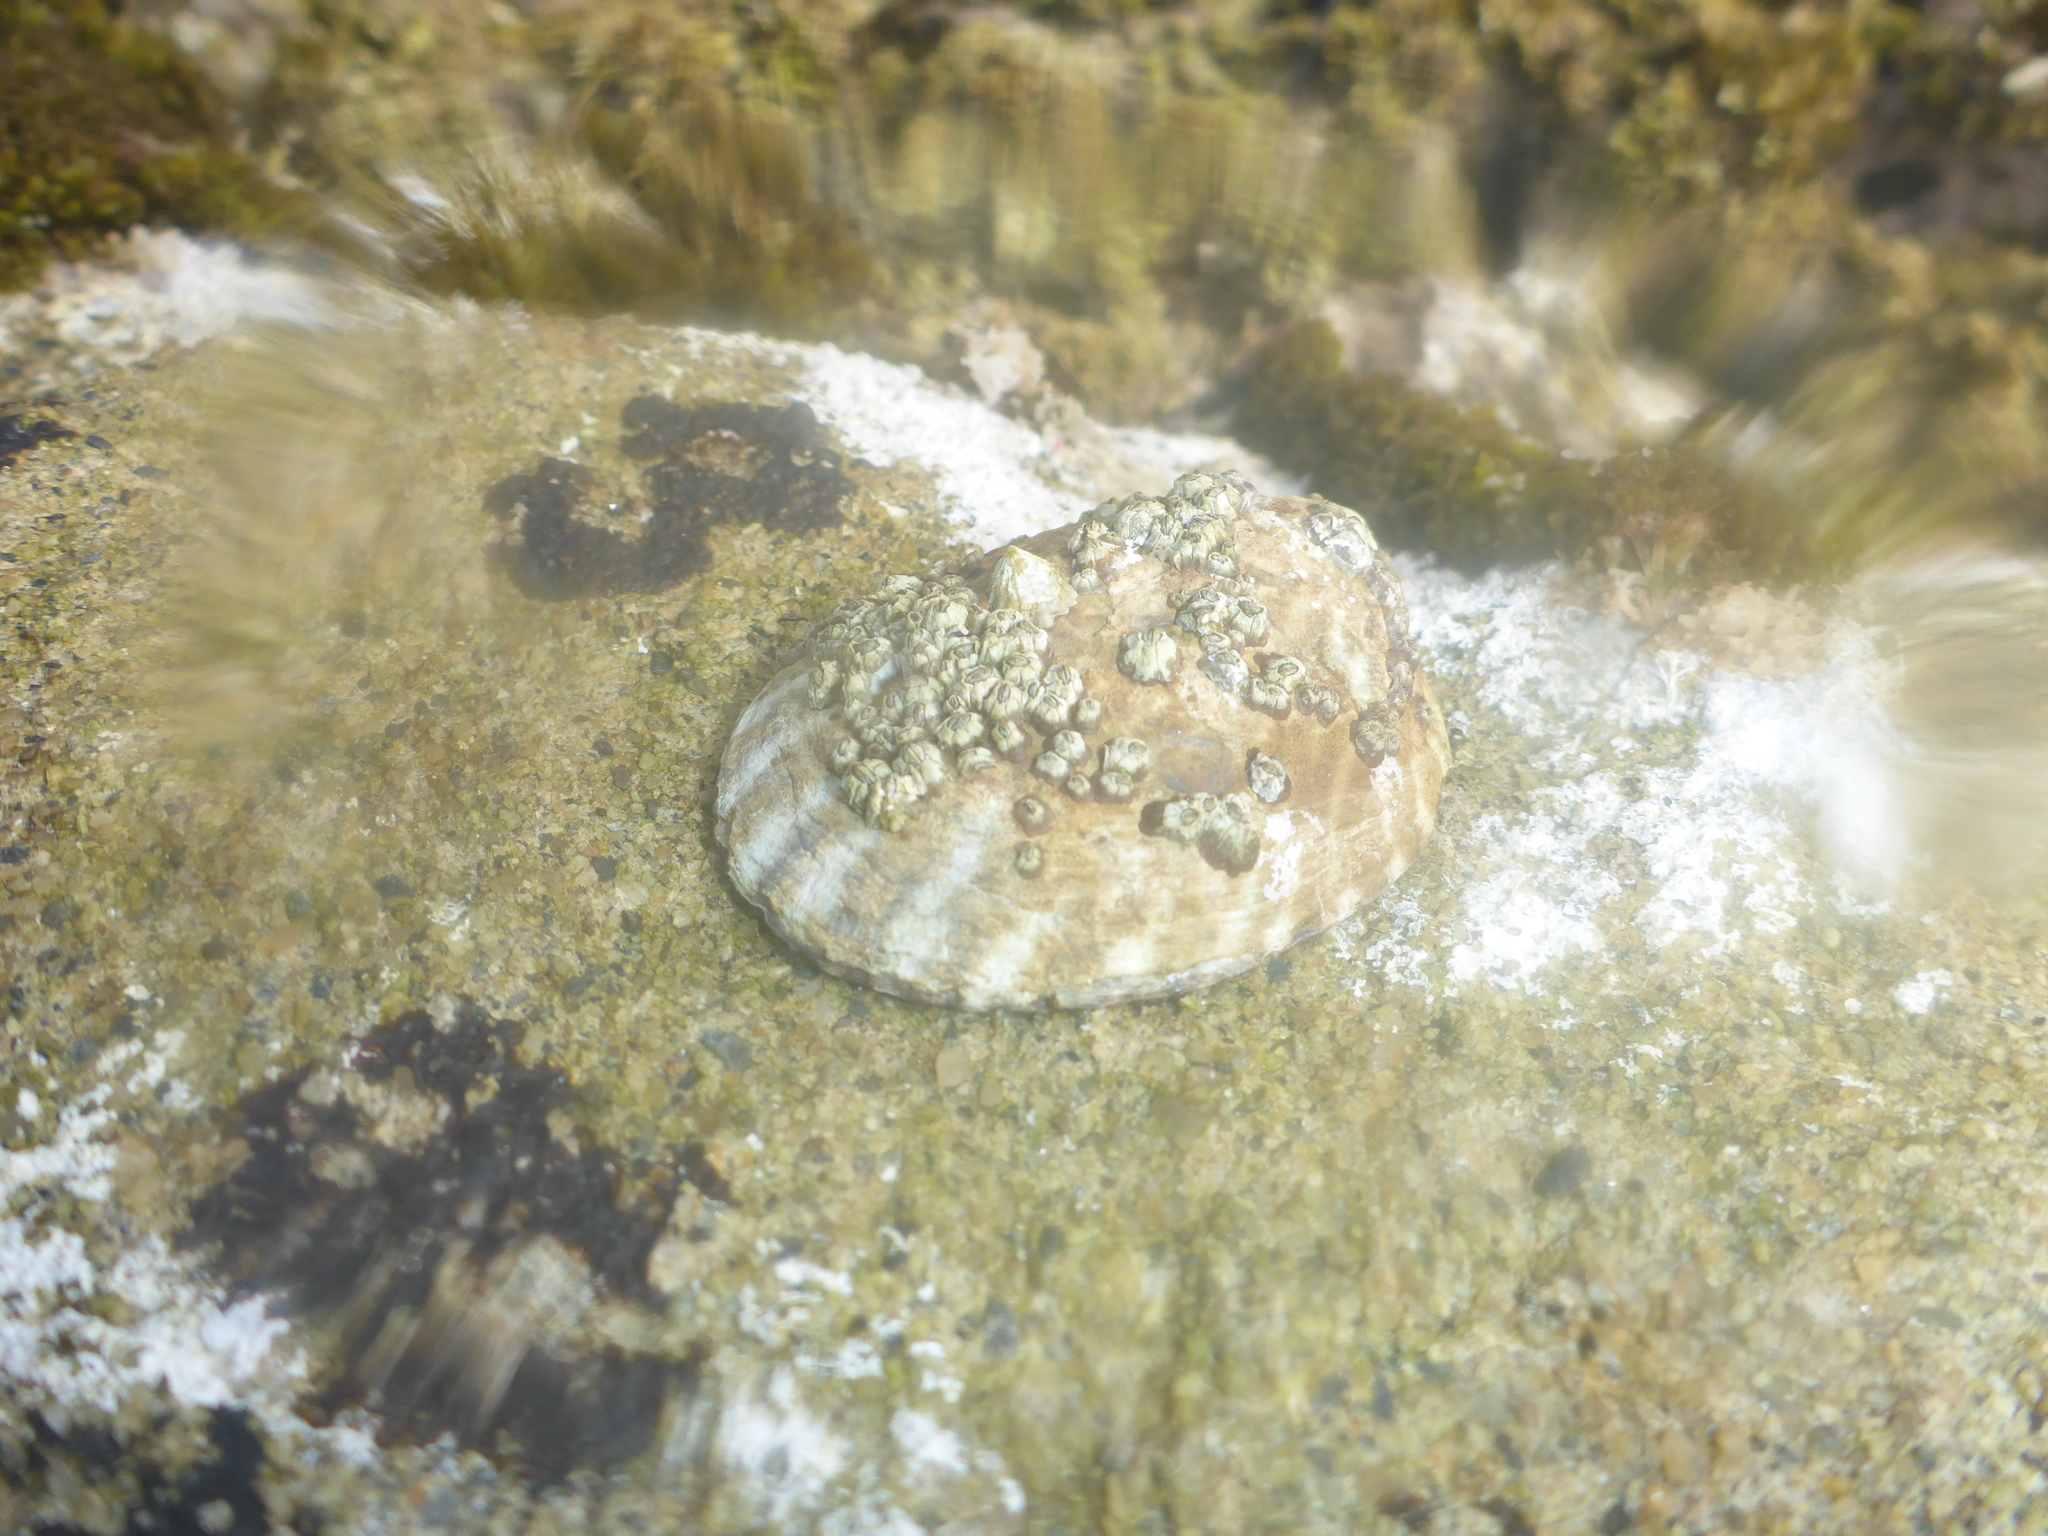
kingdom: Animalia
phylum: Mollusca
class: Gastropoda
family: Lottiidae
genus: Lottia
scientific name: Lottia gigantea
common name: Owl limpet
